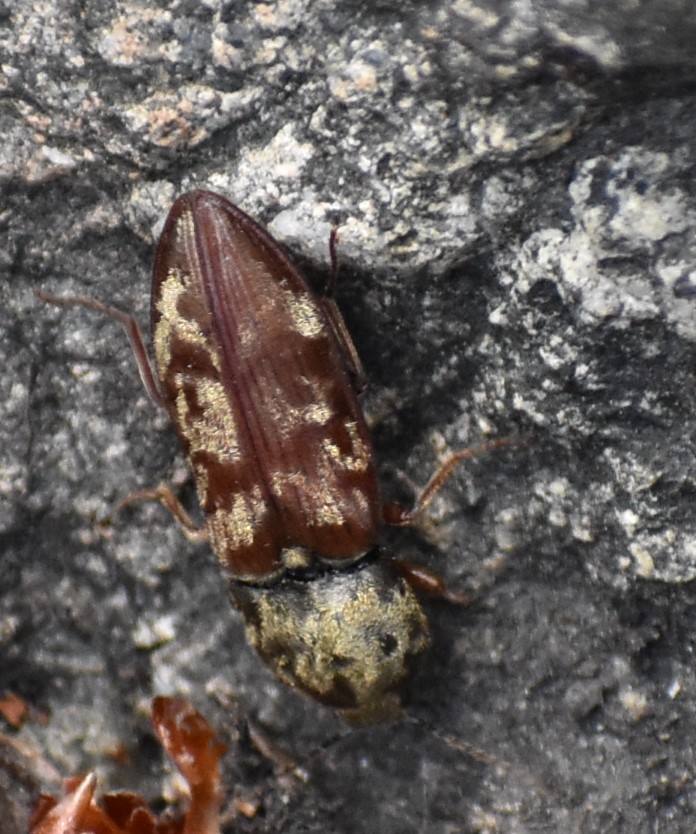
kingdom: Animalia
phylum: Arthropoda
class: Insecta
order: Coleoptera
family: Elateridae
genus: Prosternon
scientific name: Prosternon bombycinum
